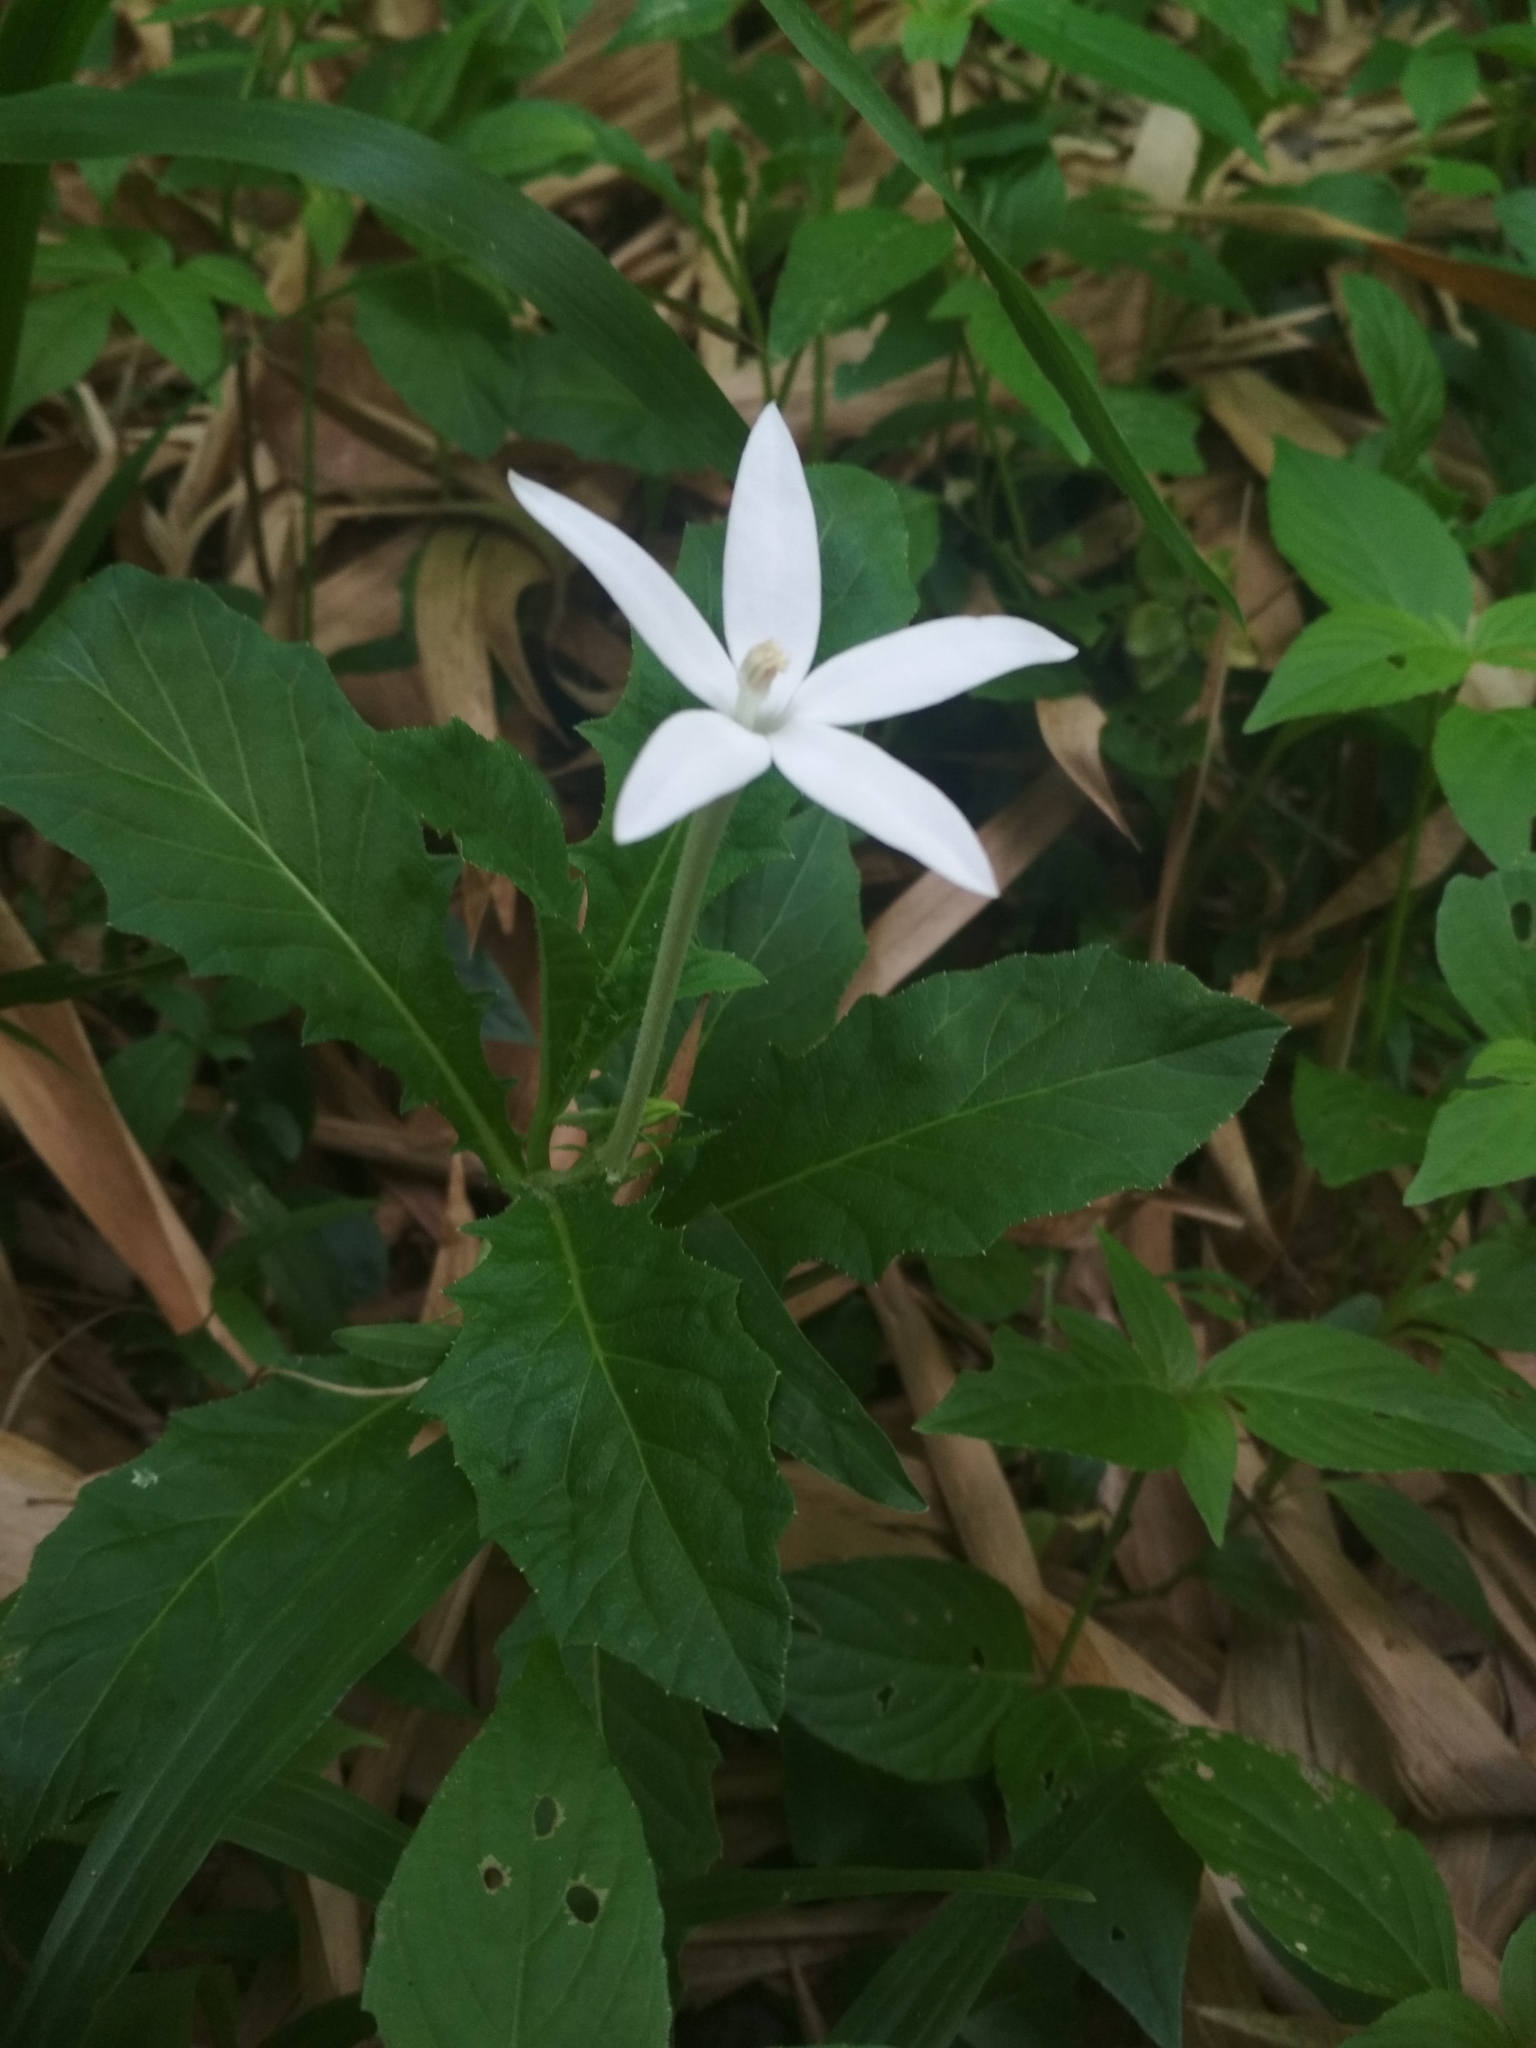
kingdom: Plantae
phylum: Tracheophyta
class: Magnoliopsida
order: Asterales
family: Campanulaceae
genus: Hippobroma
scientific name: Hippobroma longiflora
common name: Madamfate
